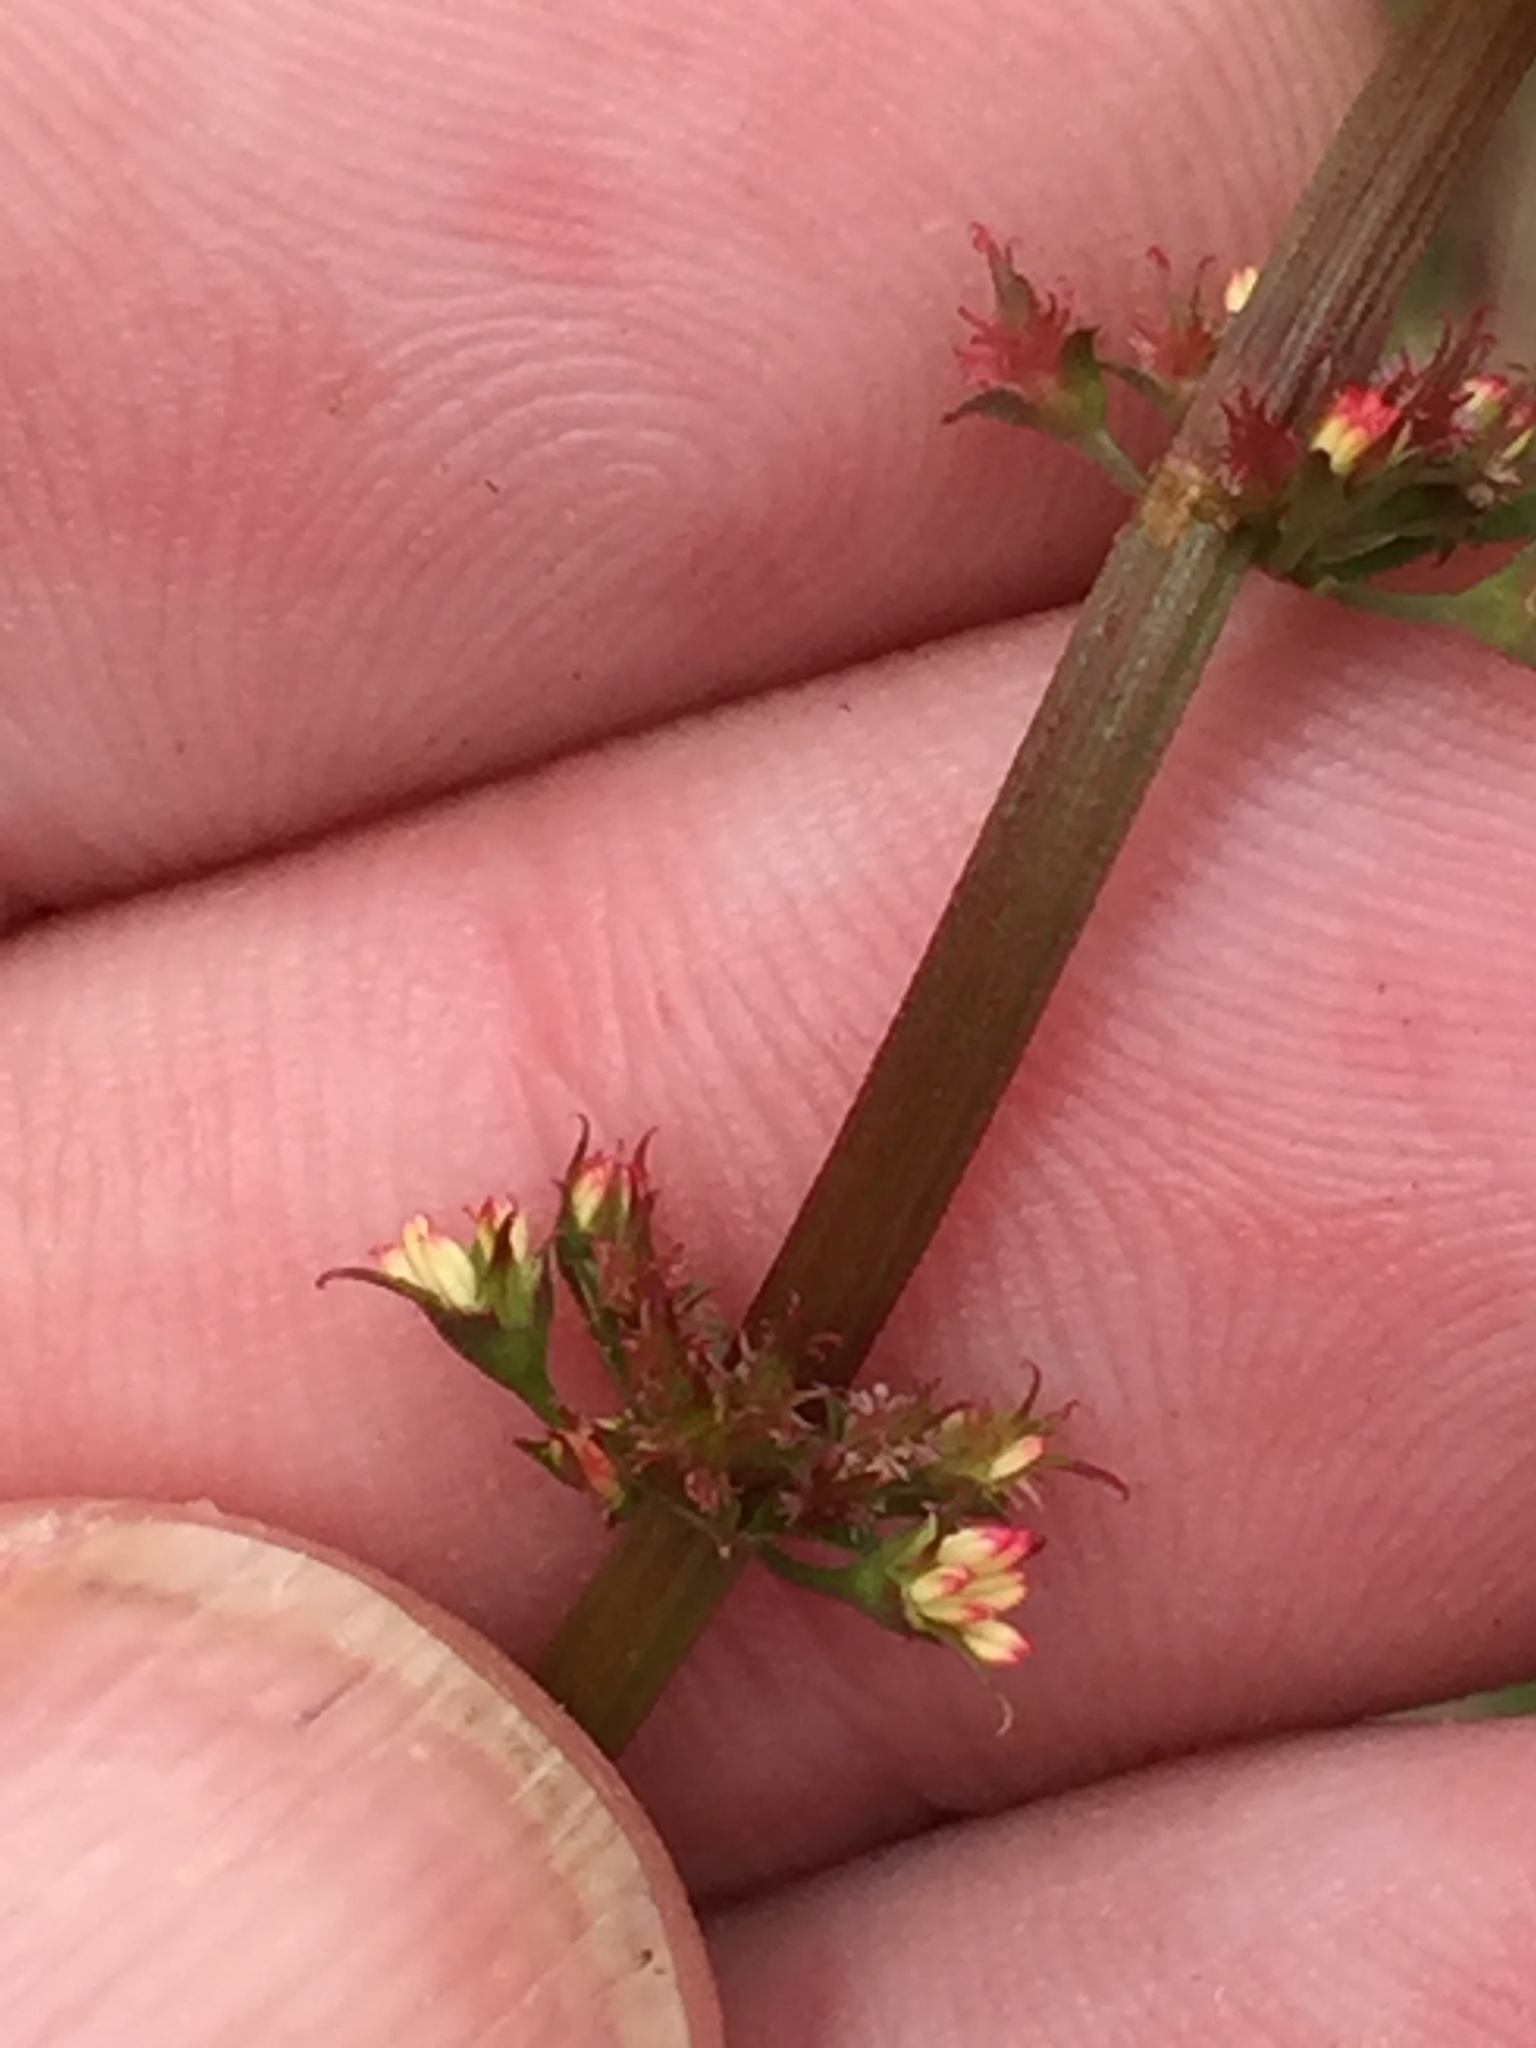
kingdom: Plantae
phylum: Tracheophyta
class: Magnoliopsida
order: Caryophyllales
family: Polygonaceae
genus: Rumex
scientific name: Rumex brownii
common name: Hooked dock
